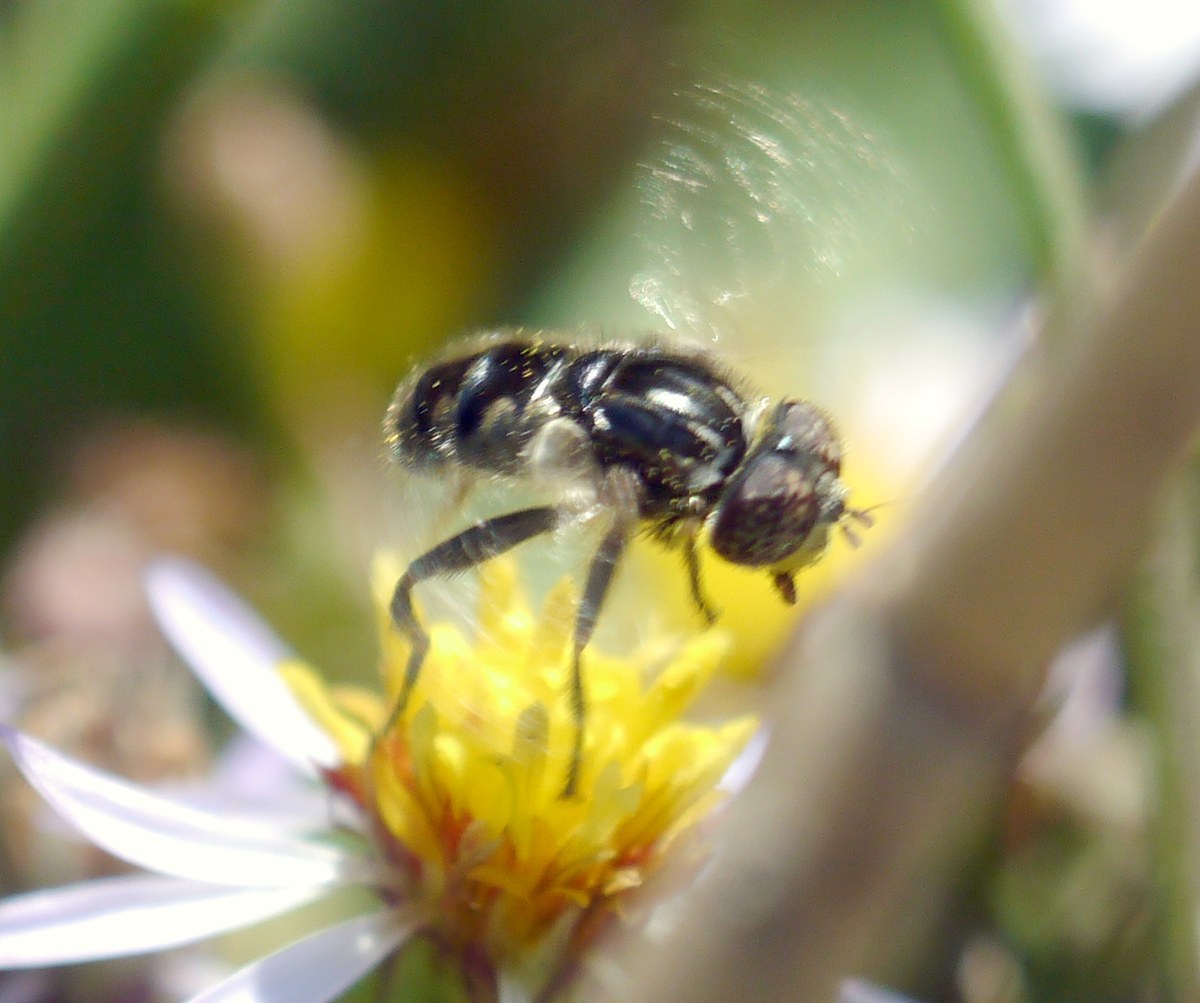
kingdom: Animalia
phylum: Arthropoda
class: Insecta
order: Diptera
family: Syrphidae
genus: Eristalinus
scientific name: Eristalinus sepulchralis
